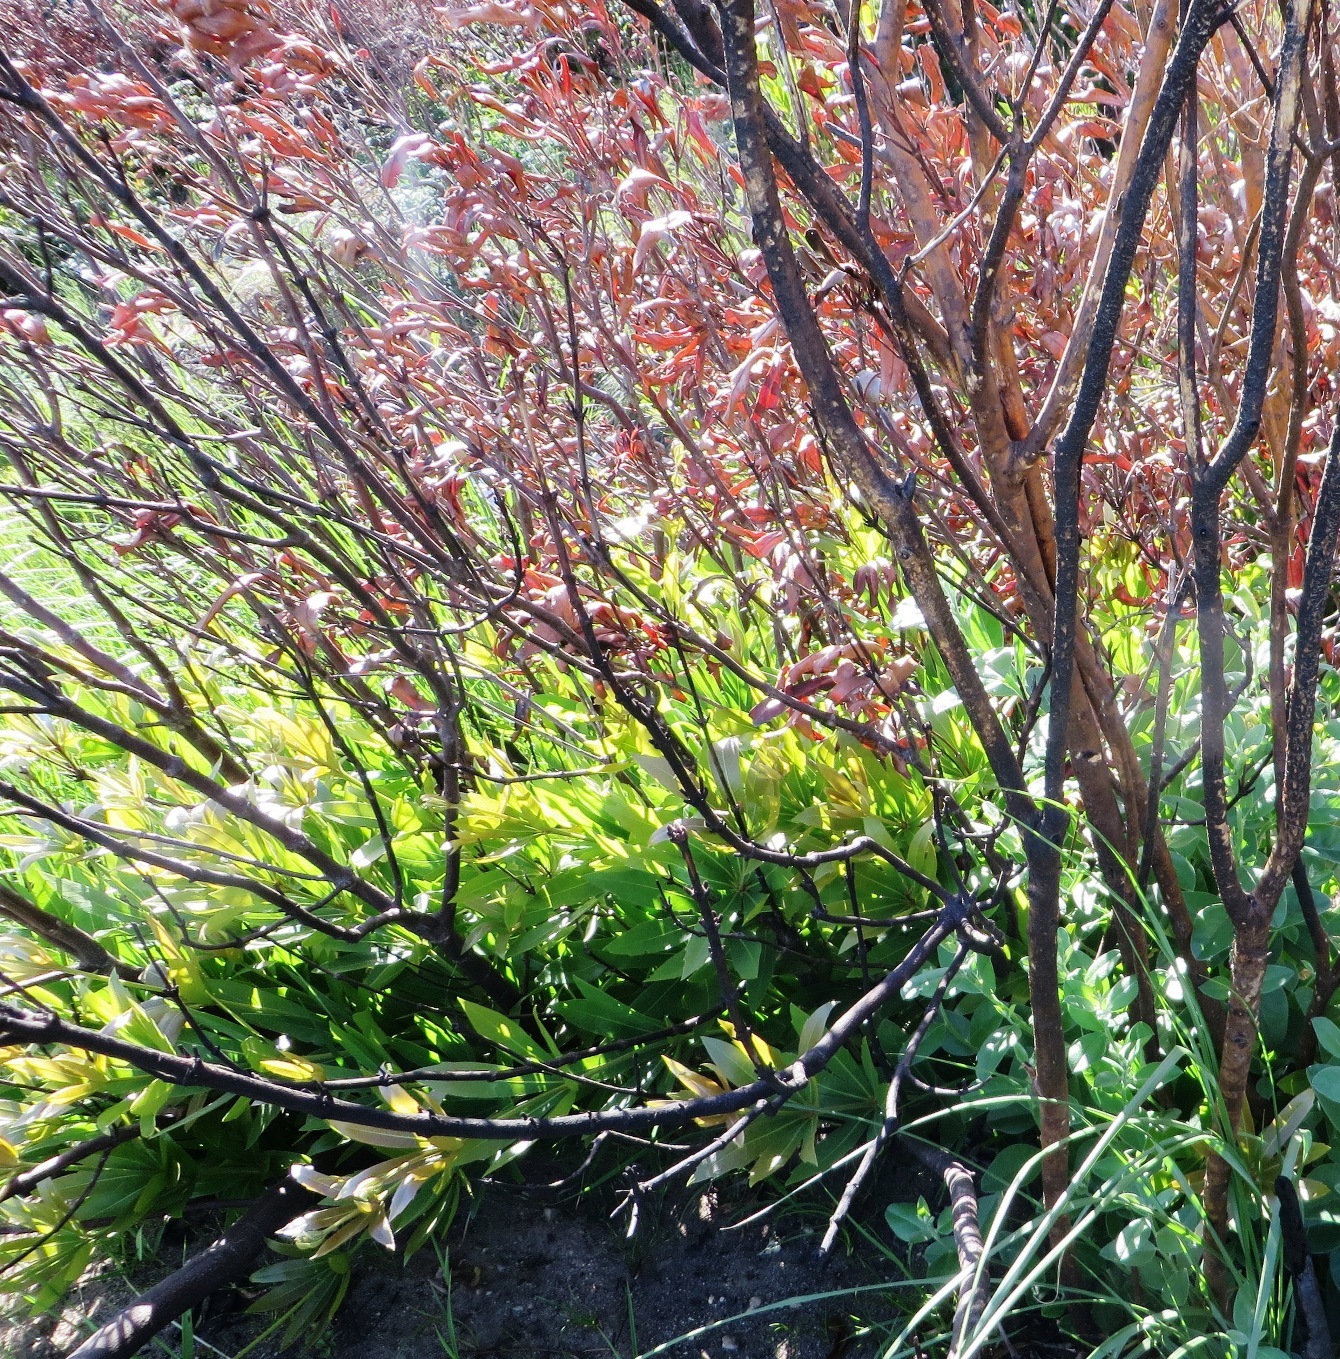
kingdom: Plantae
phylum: Tracheophyta
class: Magnoliopsida
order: Proteales
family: Proteaceae
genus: Brabejum
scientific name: Brabejum stellatifolium
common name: Wild almond
